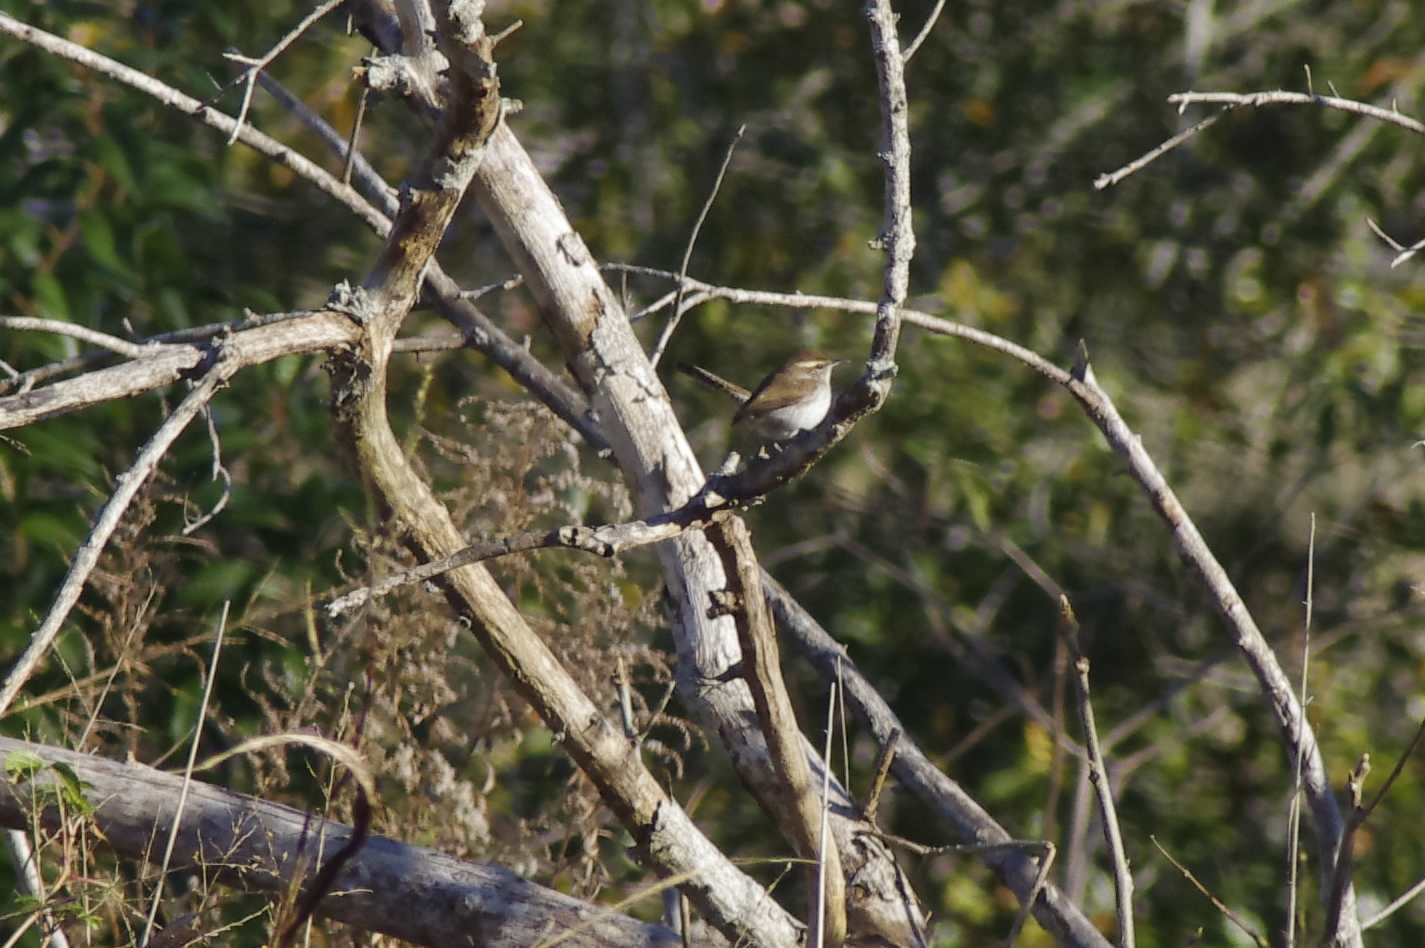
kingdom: Animalia
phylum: Chordata
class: Aves
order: Passeriformes
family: Troglodytidae
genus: Thryomanes
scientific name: Thryomanes bewickii
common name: Bewick's wren
